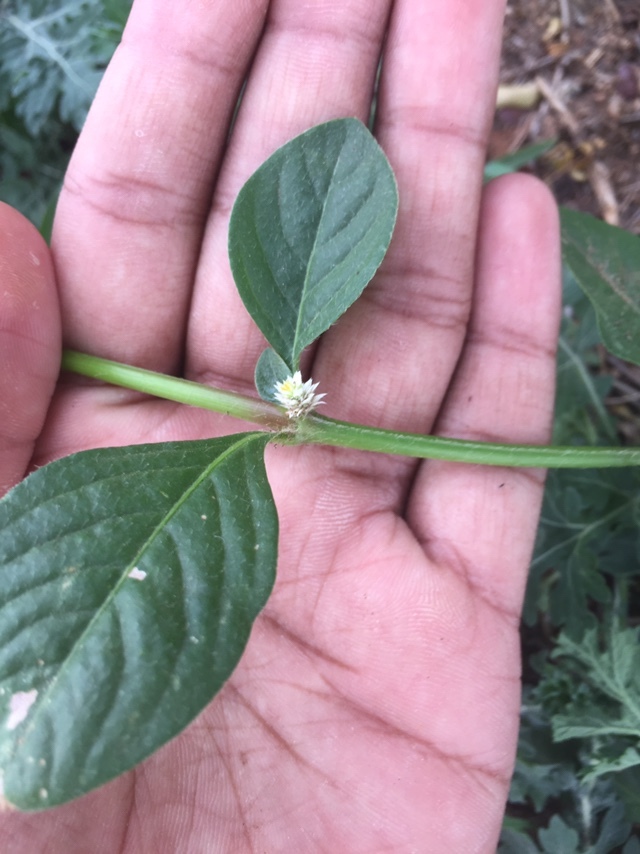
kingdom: Plantae
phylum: Tracheophyta
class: Magnoliopsida
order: Caryophyllales
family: Amaranthaceae
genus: Alternanthera
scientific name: Alternanthera ficoidea
